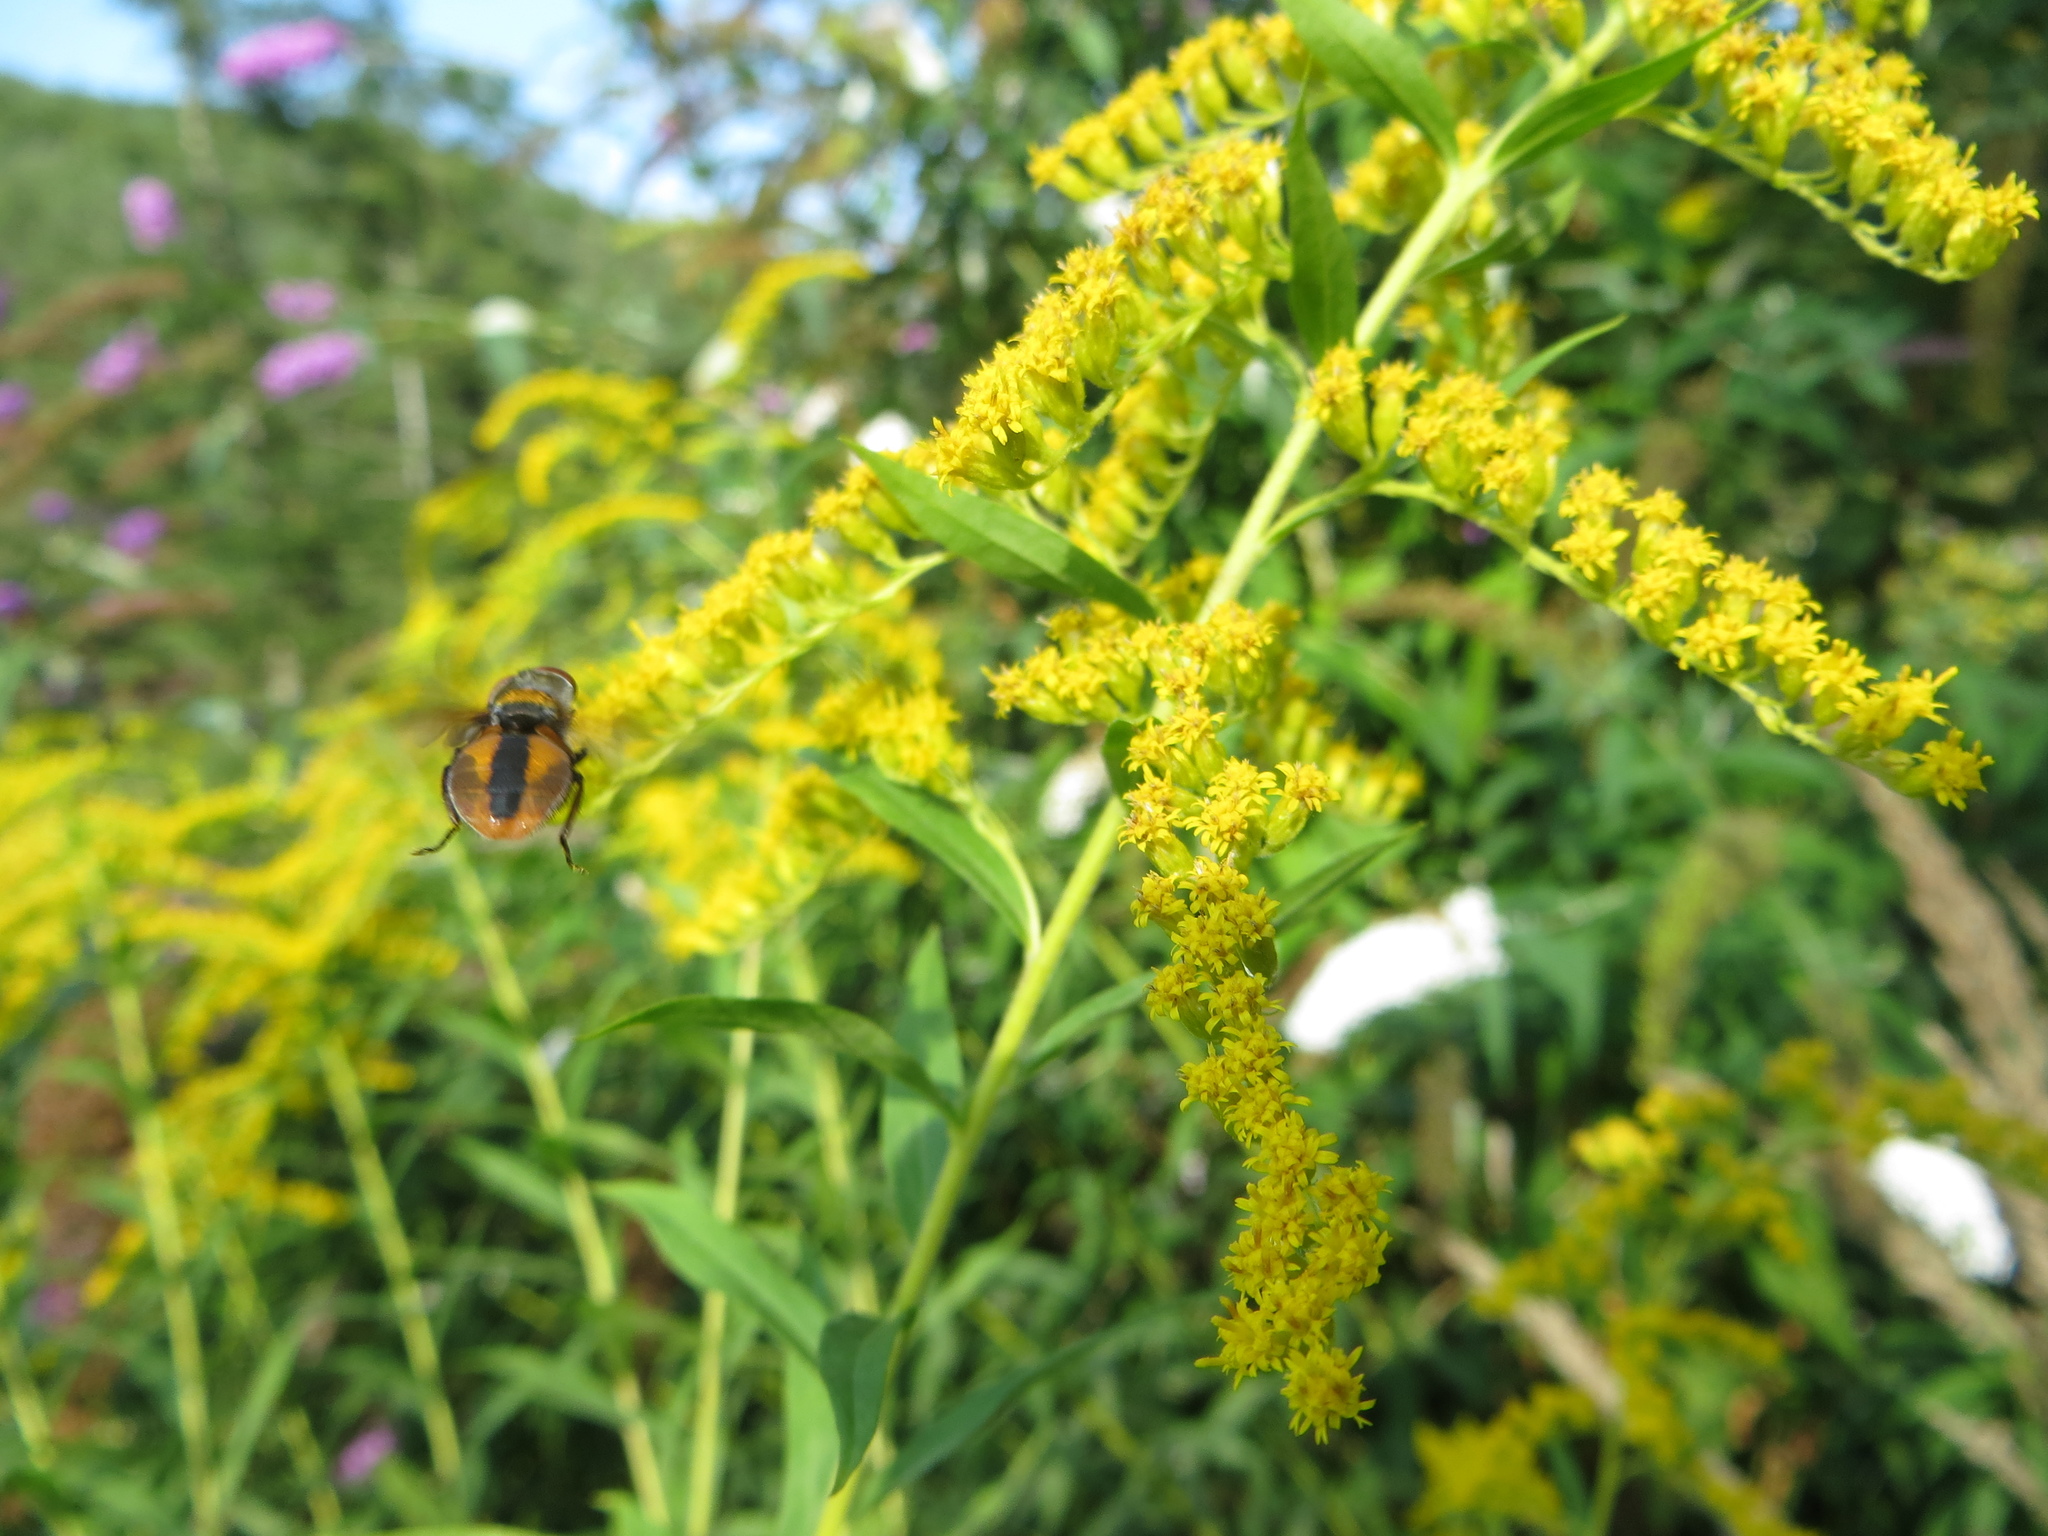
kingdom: Animalia
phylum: Arthropoda
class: Insecta
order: Diptera
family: Tachinidae
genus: Ectophasia
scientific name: Ectophasia crassipennis
